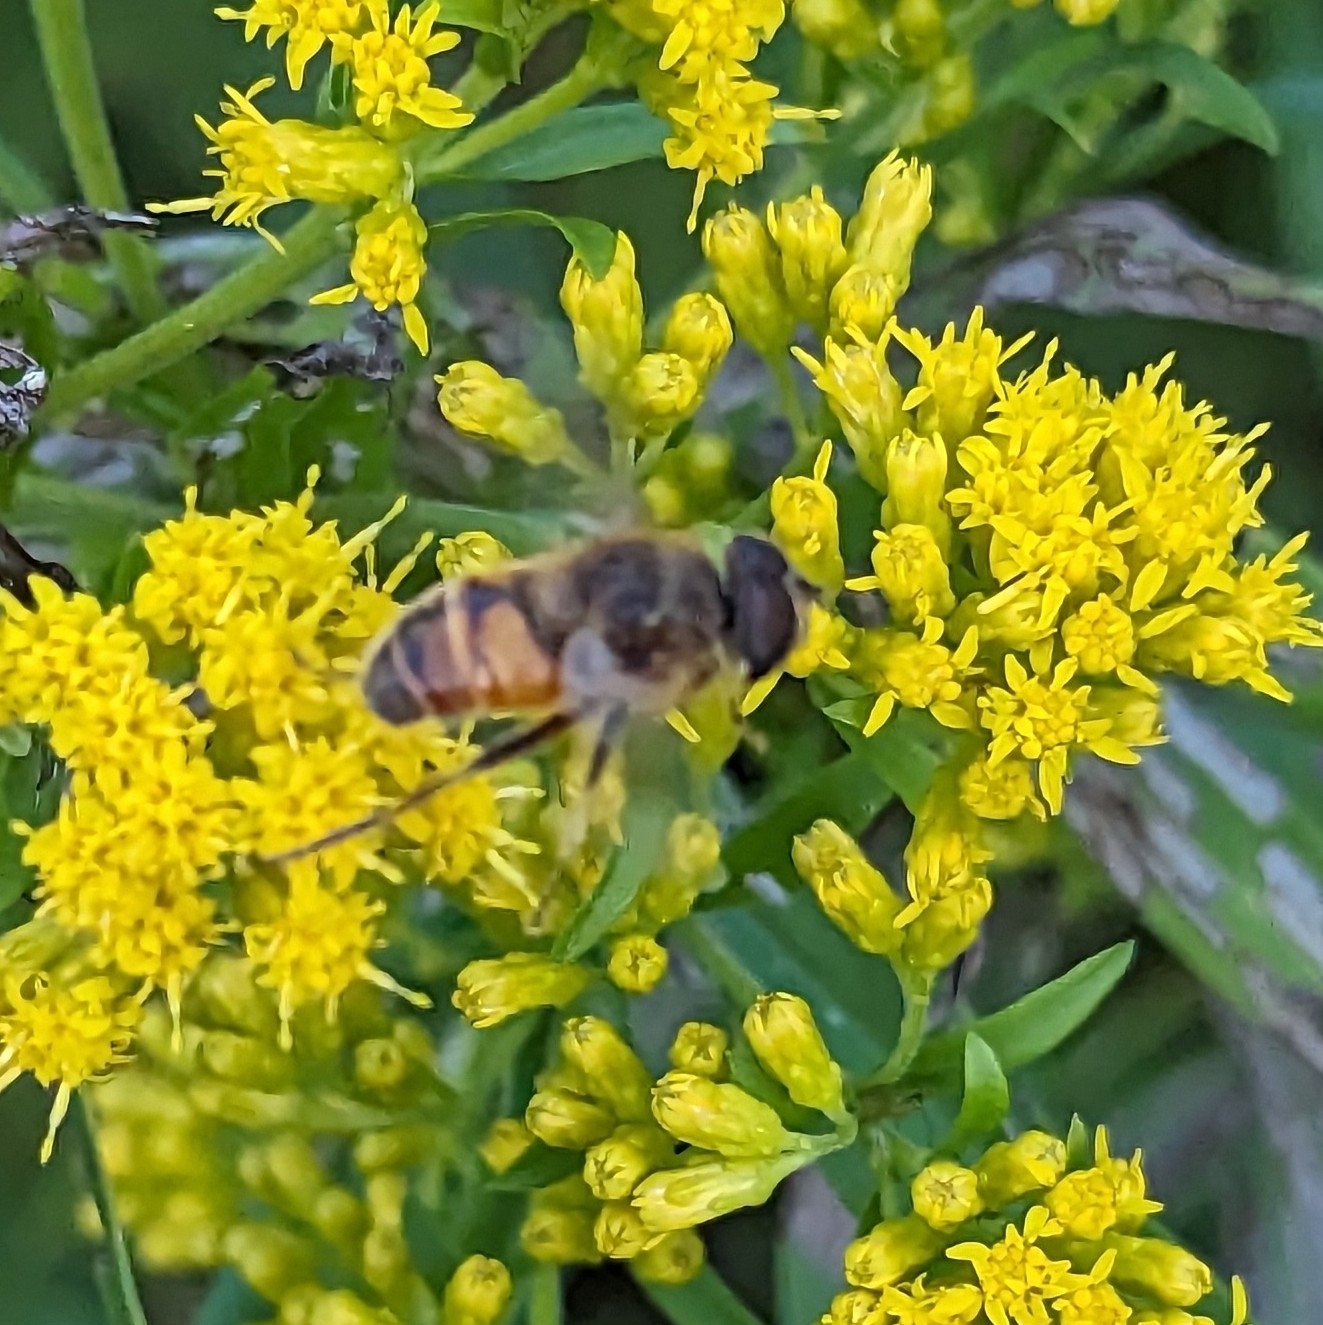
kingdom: Animalia
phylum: Arthropoda
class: Insecta
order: Diptera
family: Syrphidae
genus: Eristalis
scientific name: Eristalis tenax
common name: Drone fly
